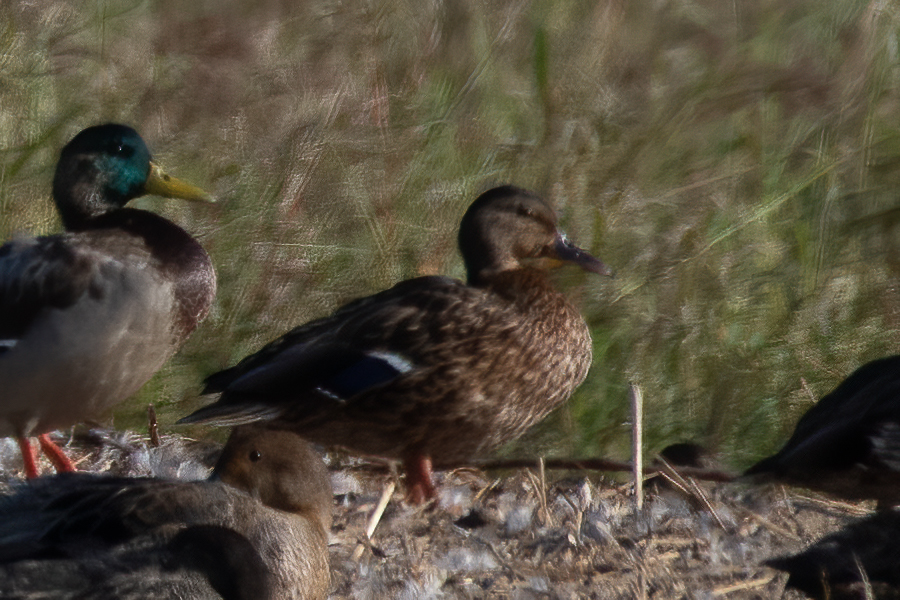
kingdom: Animalia
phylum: Chordata
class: Aves
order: Anseriformes
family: Anatidae
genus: Anas
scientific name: Anas platyrhynchos
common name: Mallard
